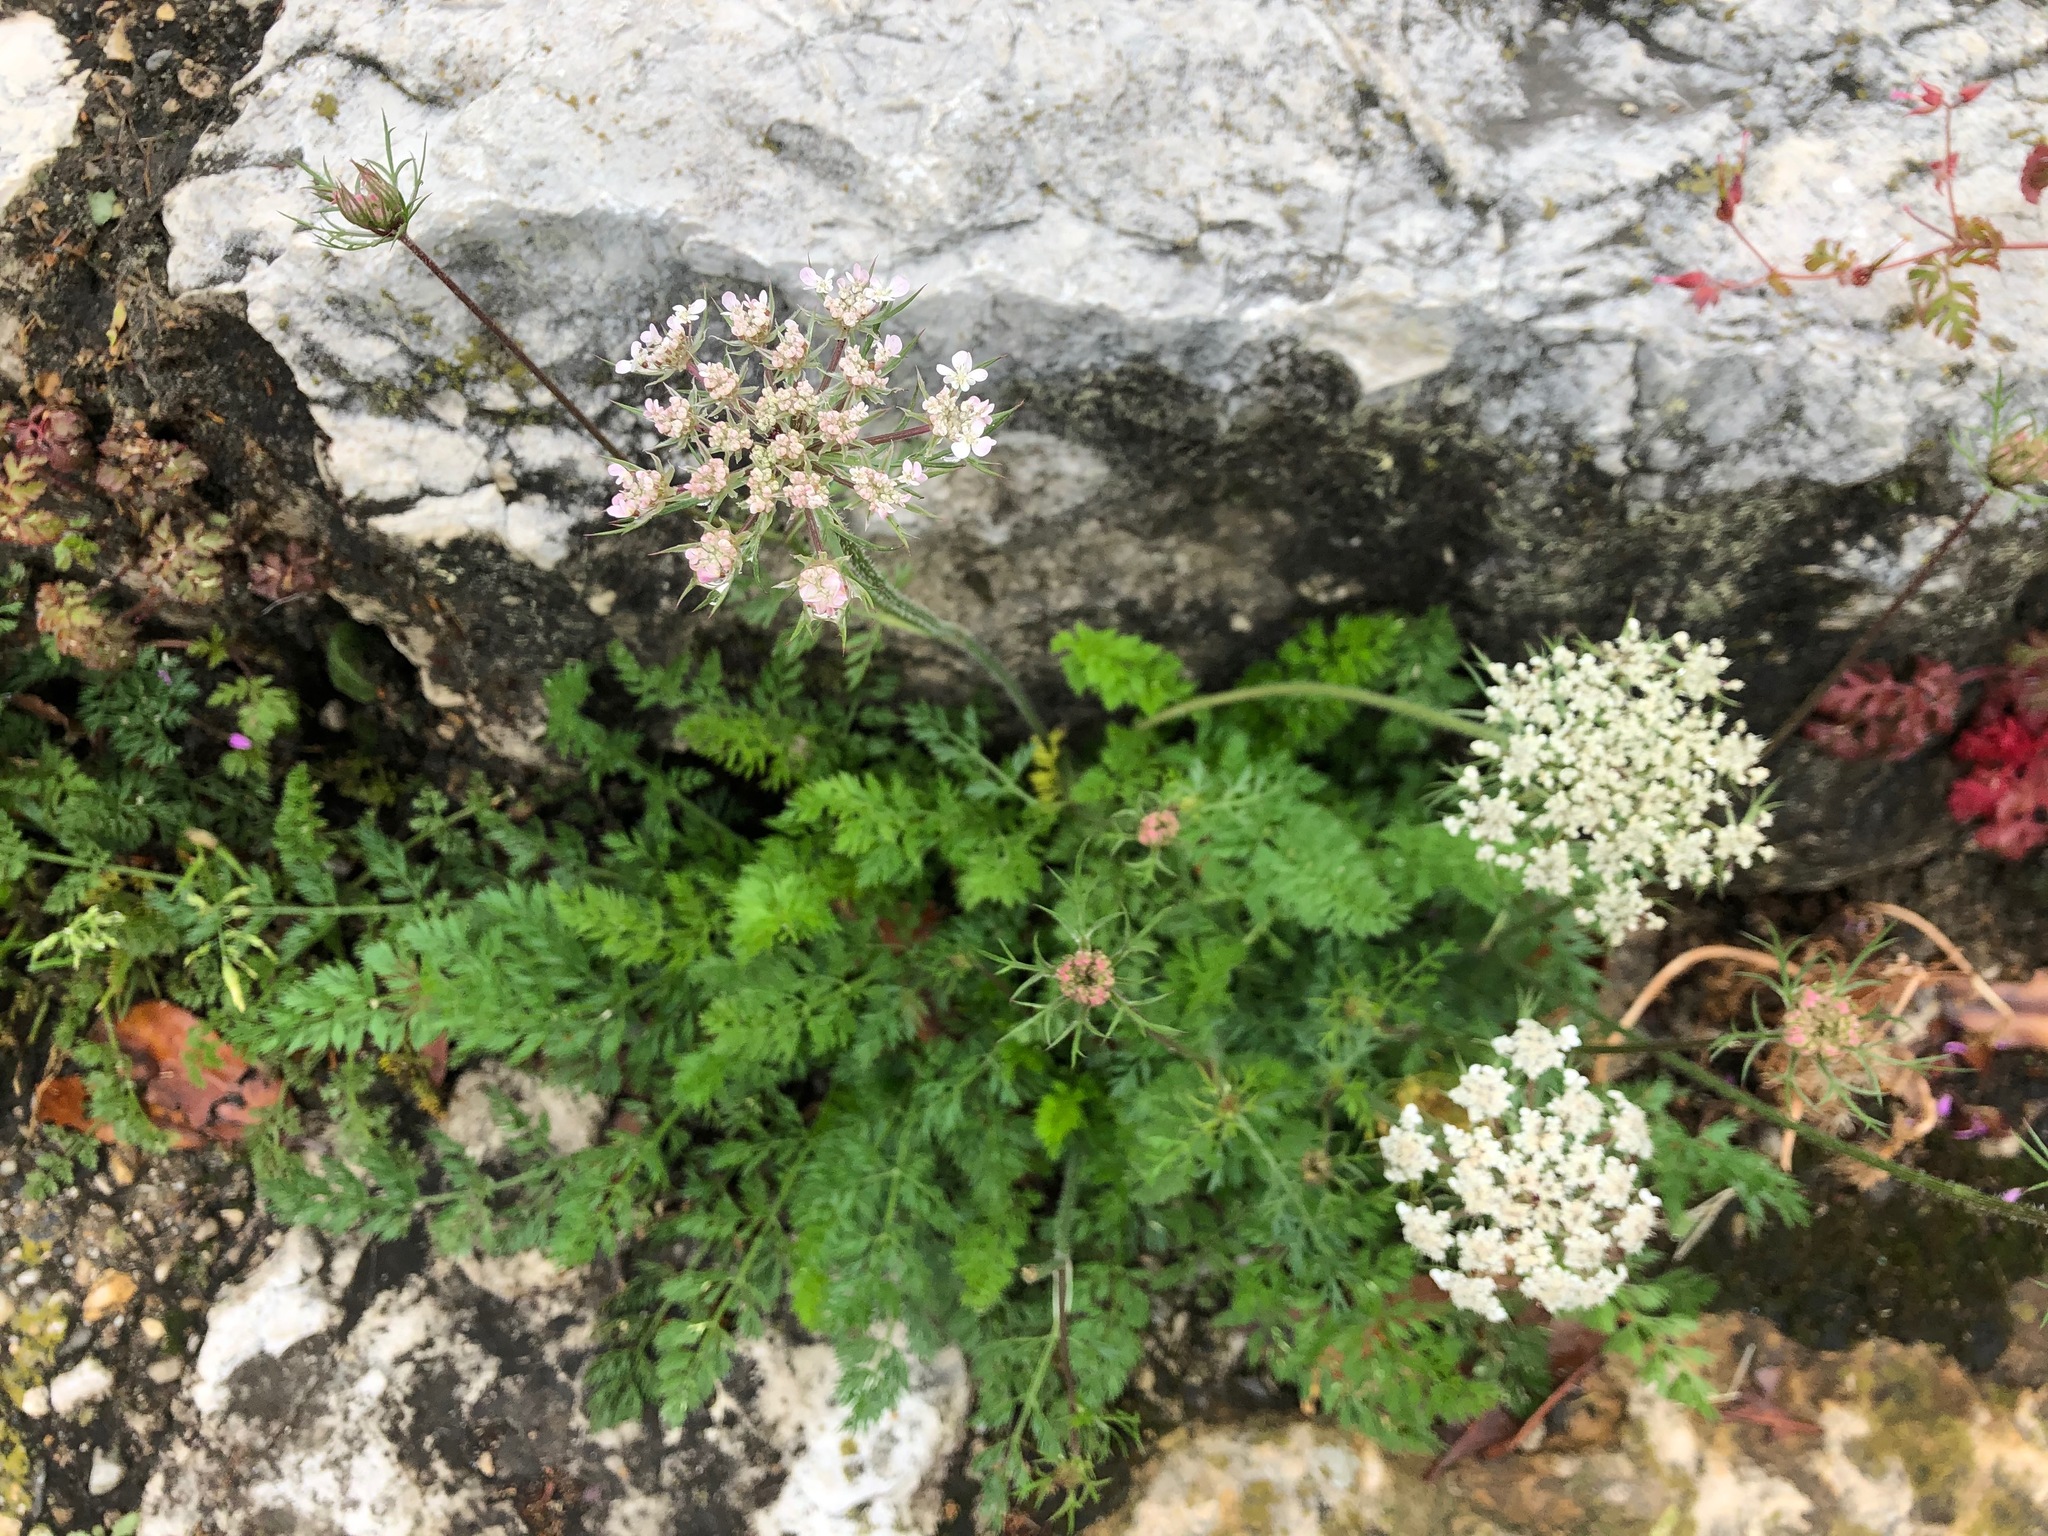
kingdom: Plantae
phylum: Tracheophyta
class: Magnoliopsida
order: Apiales
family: Apiaceae
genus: Daucus
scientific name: Daucus carota
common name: Wild carrot
